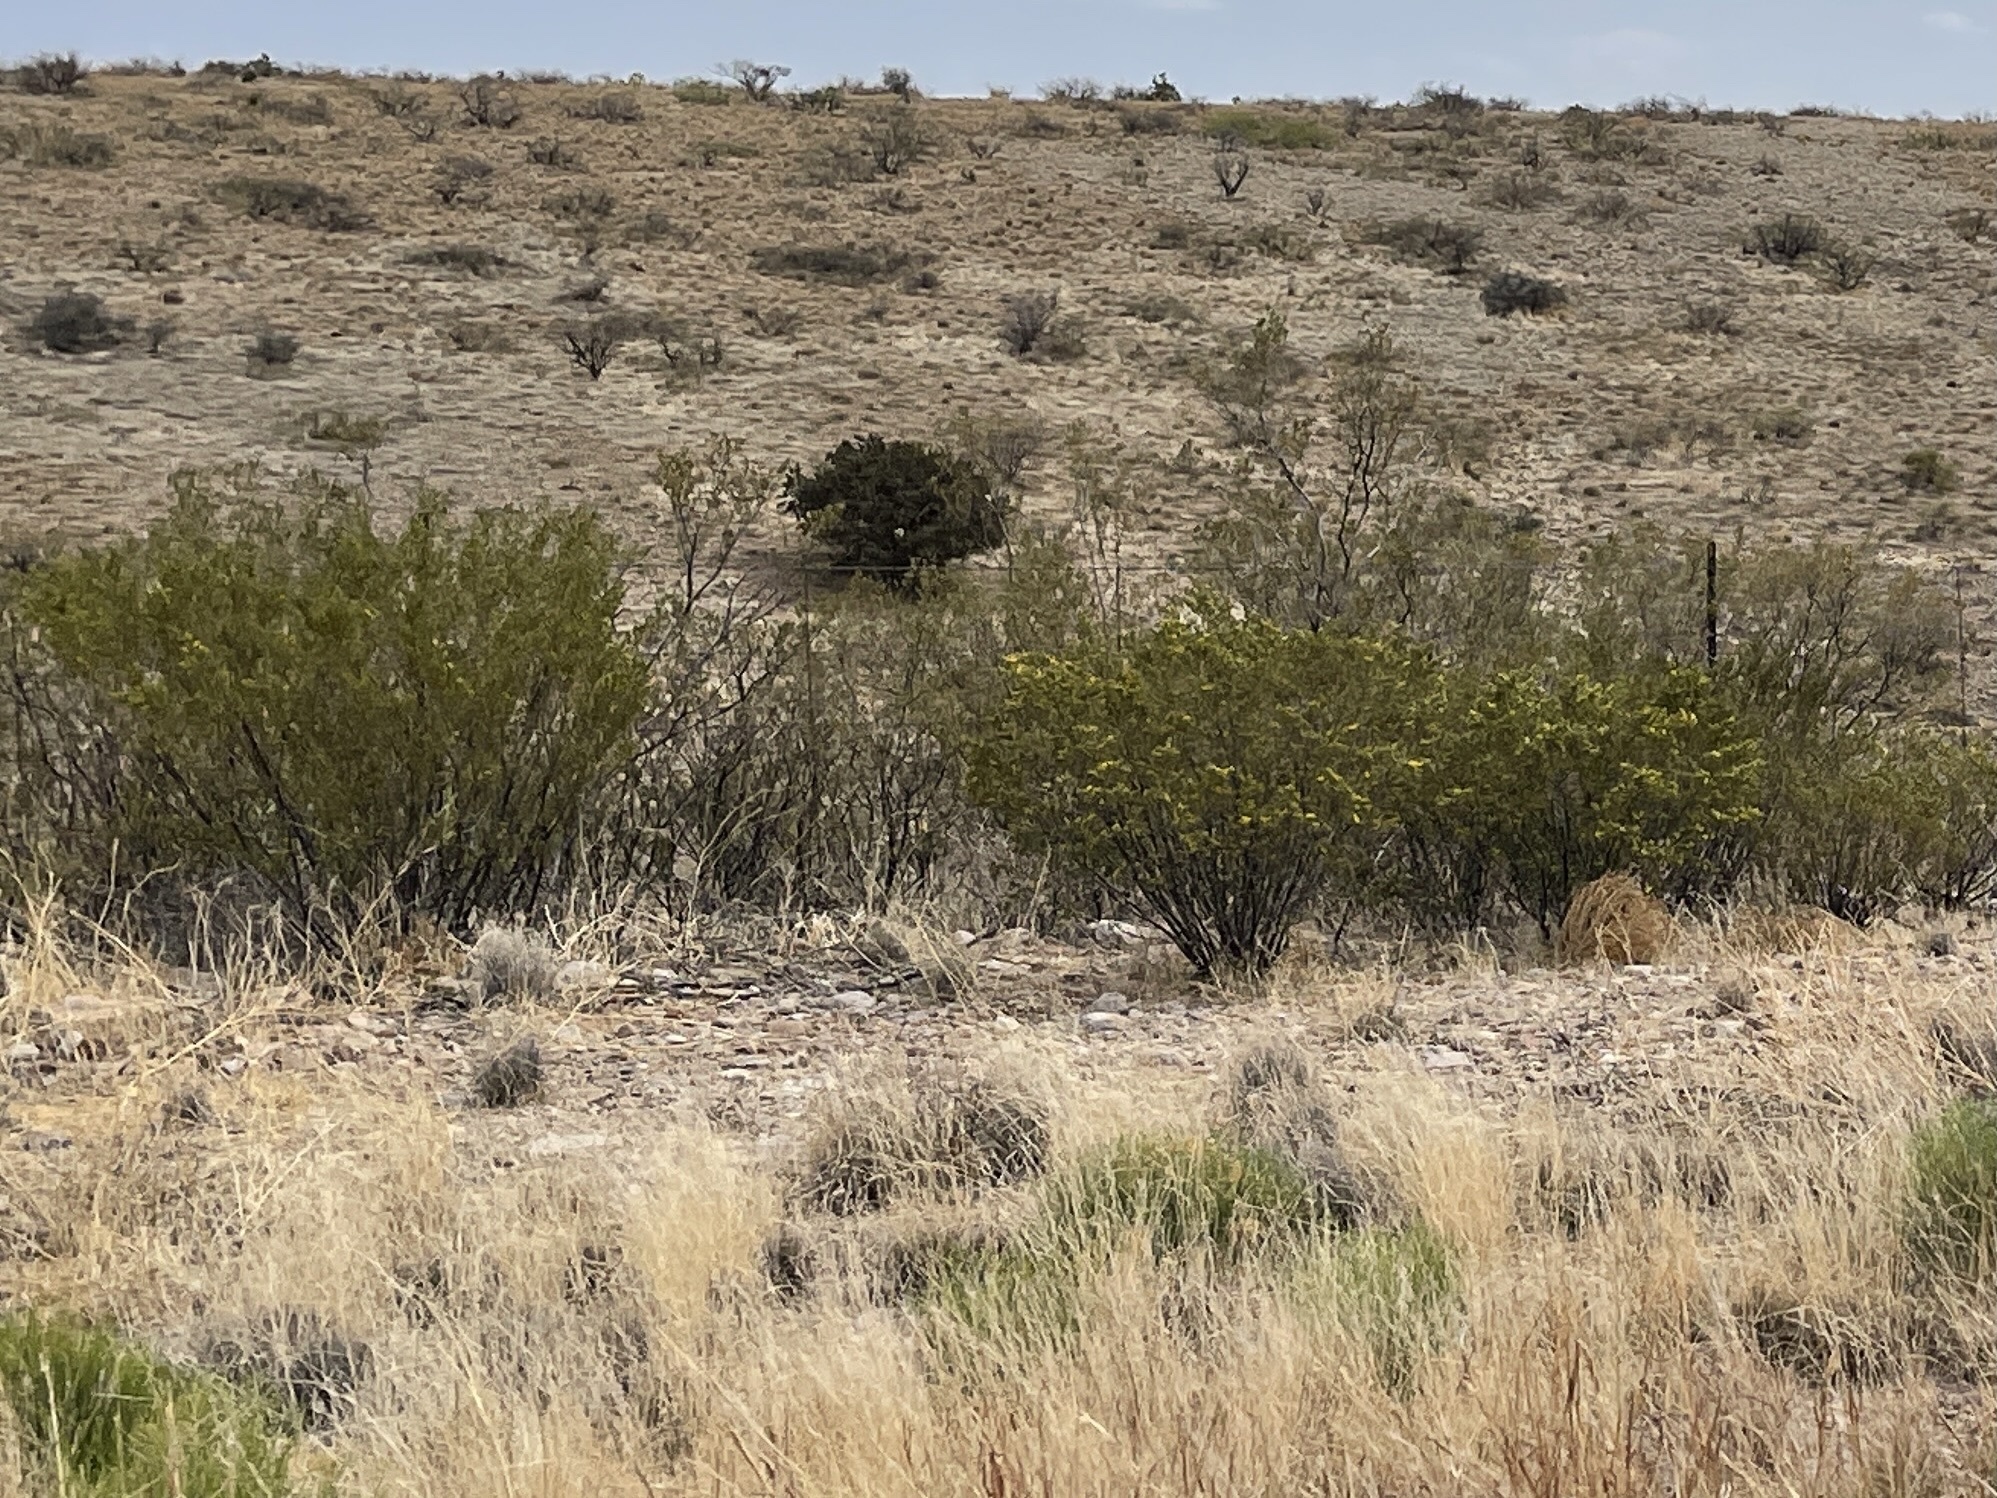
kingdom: Plantae
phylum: Tracheophyta
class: Magnoliopsida
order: Zygophyllales
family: Zygophyllaceae
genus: Larrea
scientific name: Larrea tridentata
